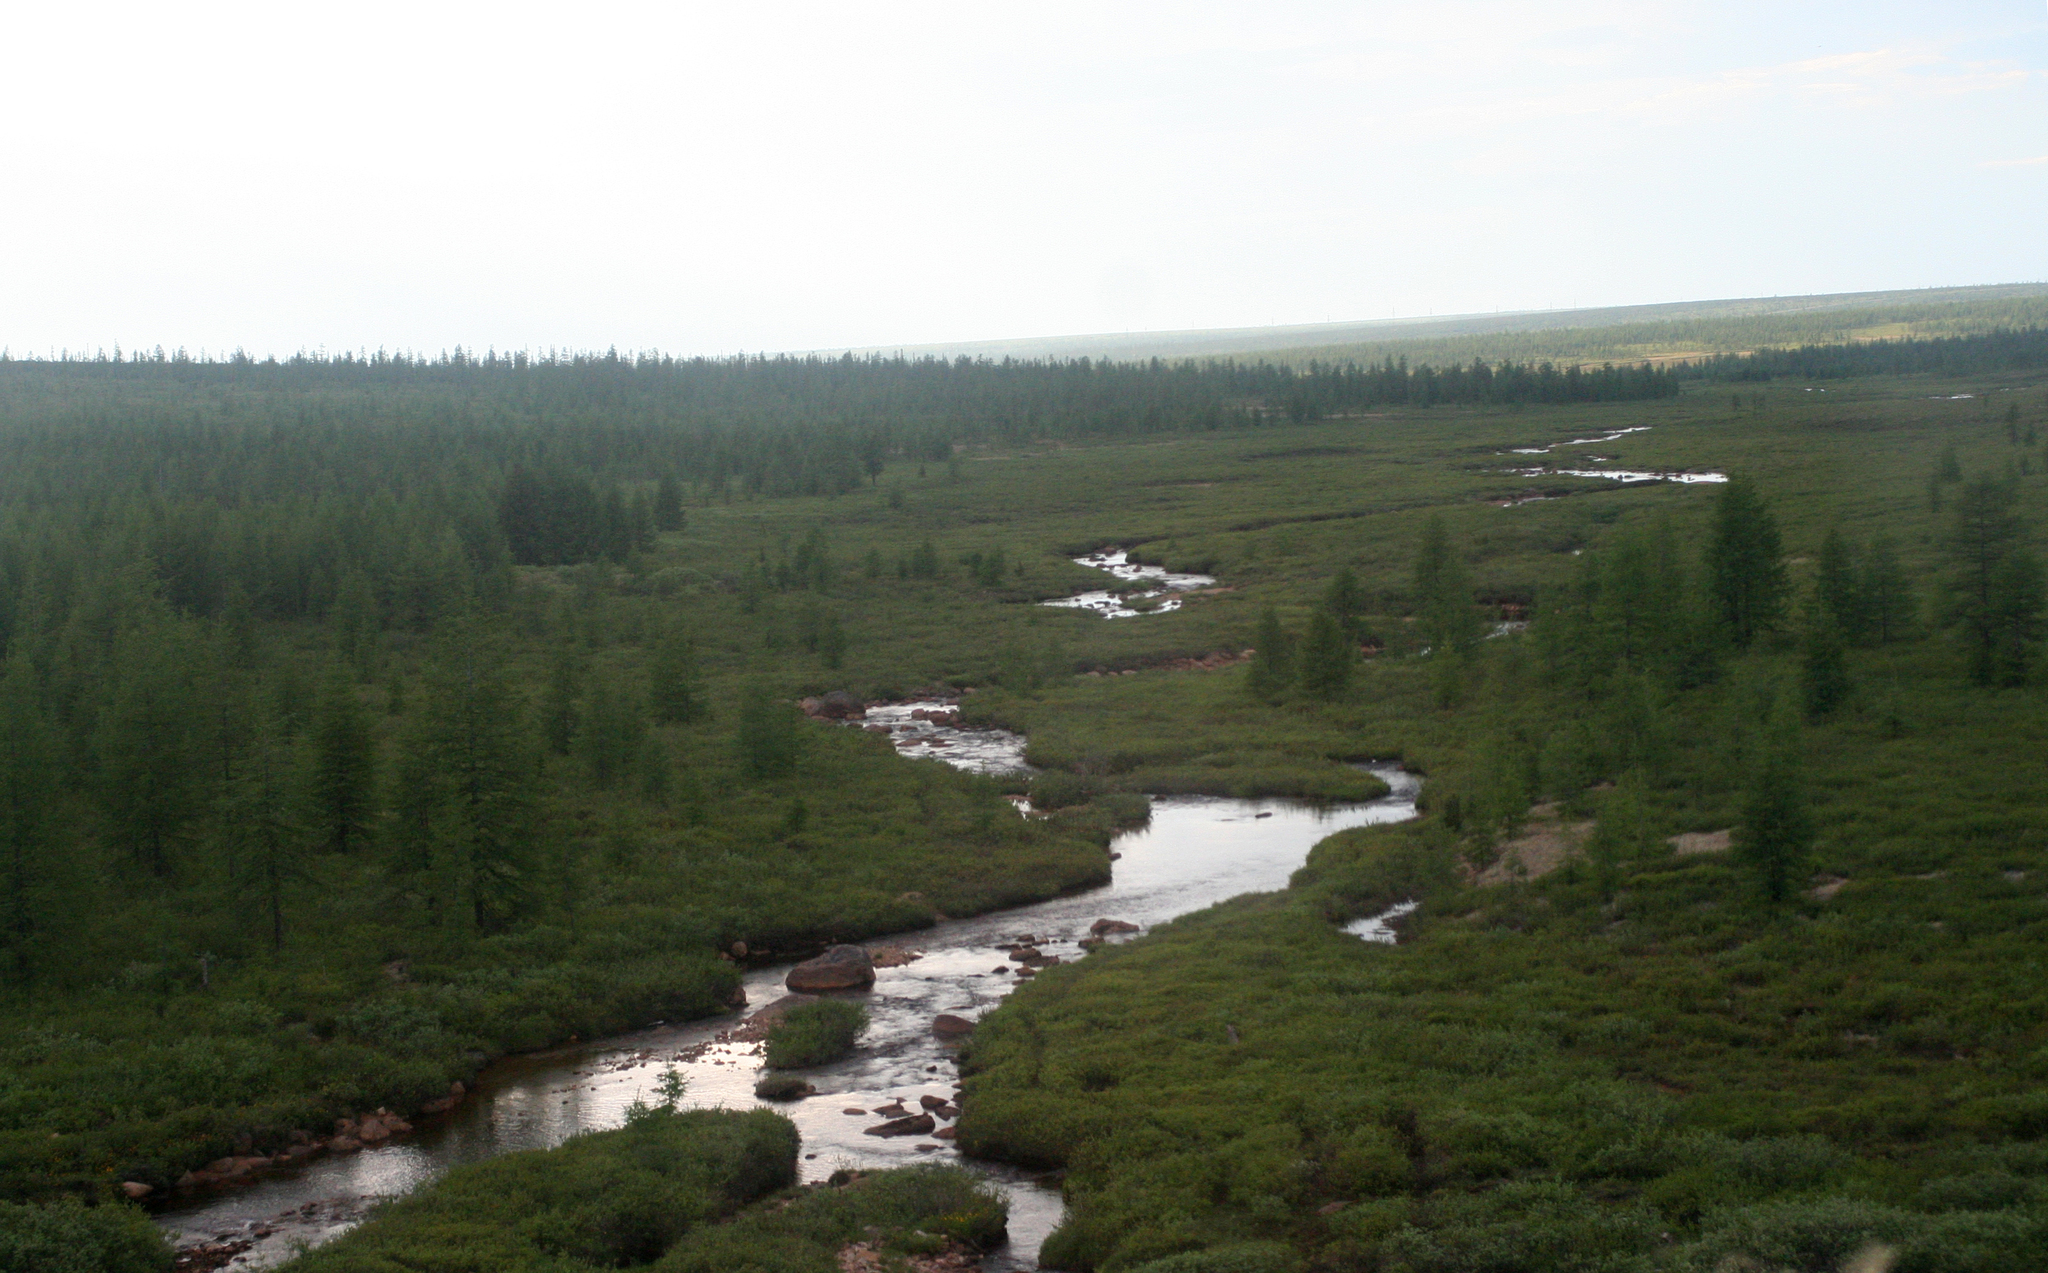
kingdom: Plantae
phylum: Tracheophyta
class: Pinopsida
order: Pinales
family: Pinaceae
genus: Larix
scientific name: Larix gmelinii
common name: Dahurian larch
